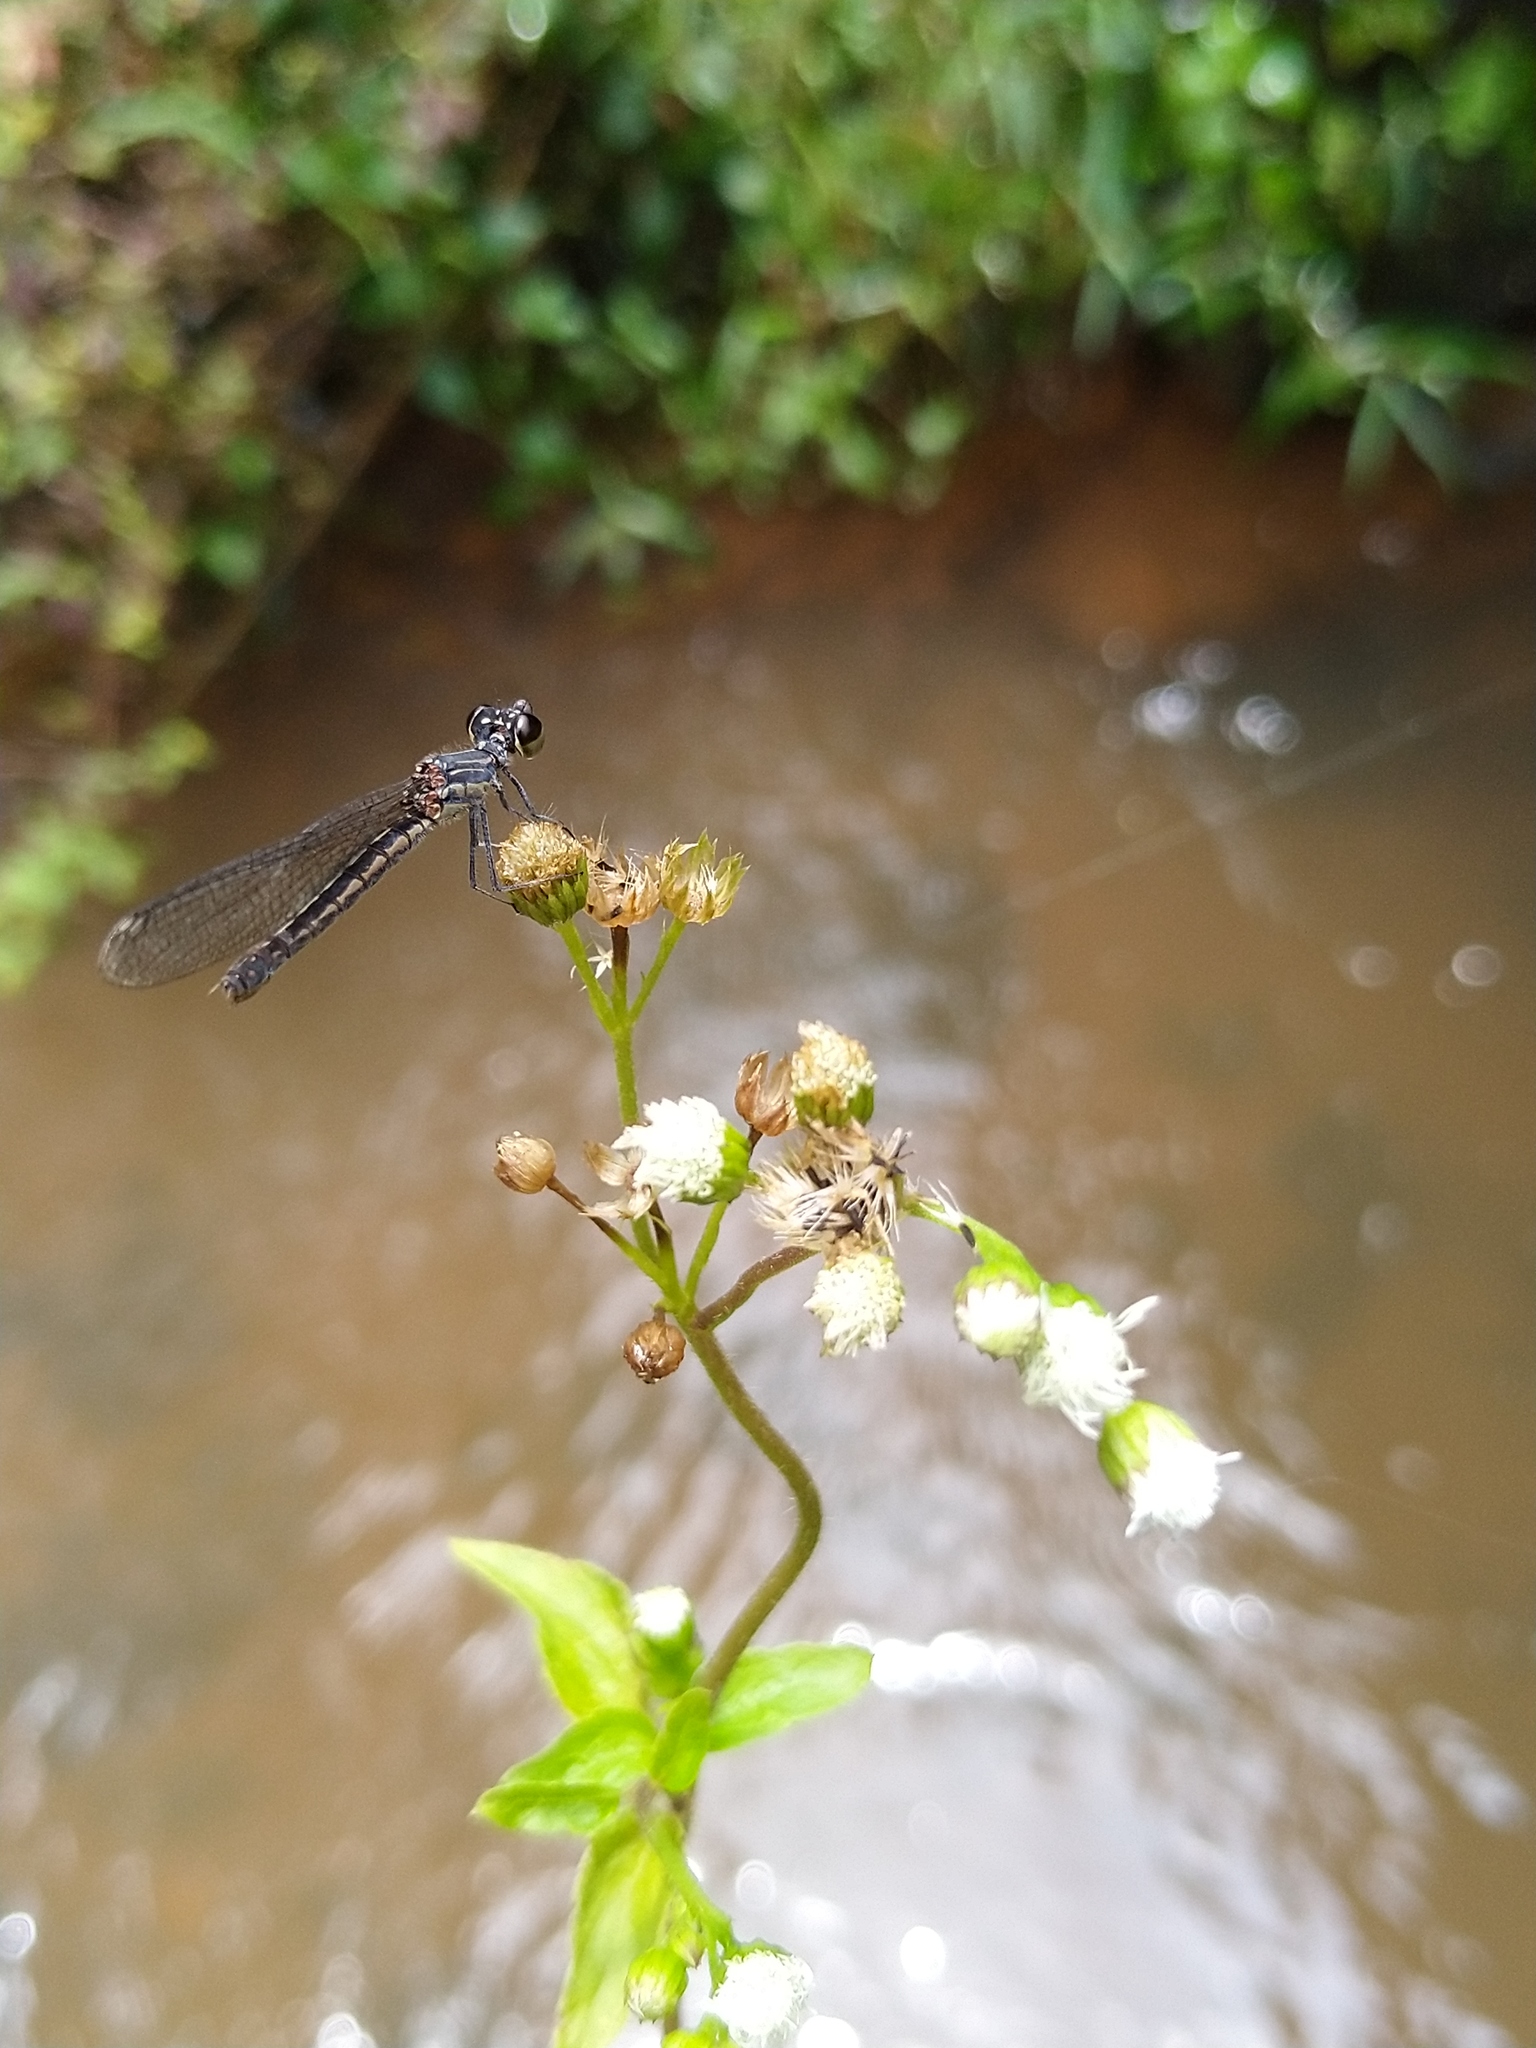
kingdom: Animalia
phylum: Arthropoda
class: Insecta
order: Odonata
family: Chlorocyphidae
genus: Libellago
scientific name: Libellago indica
